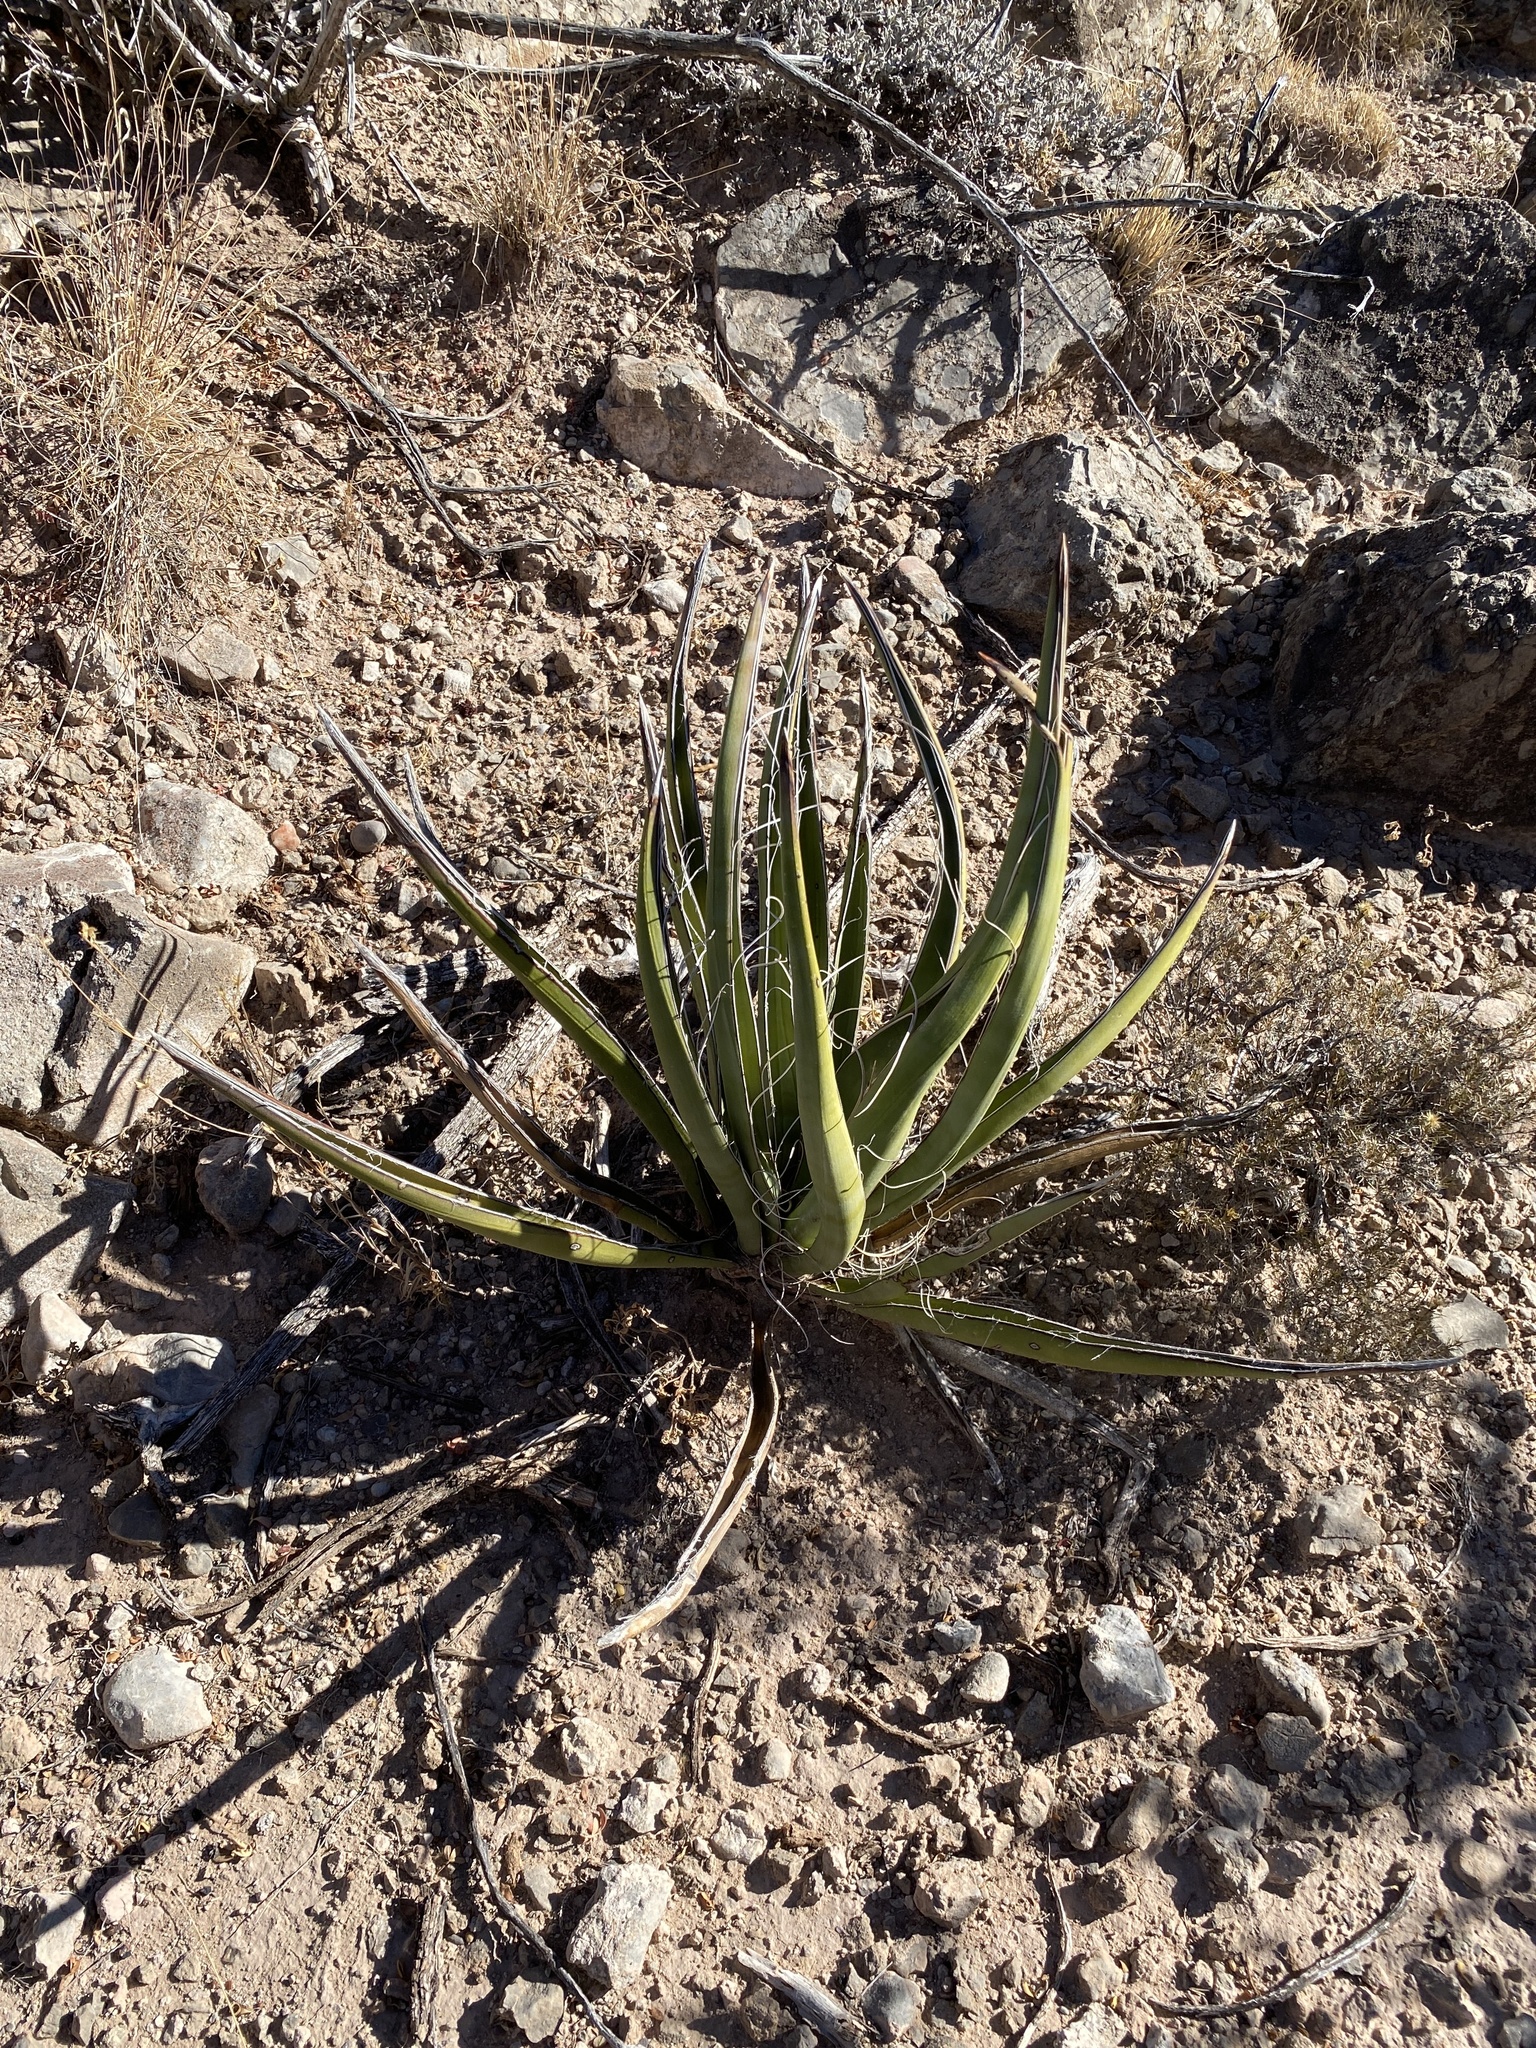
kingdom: Plantae
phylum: Tracheophyta
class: Liliopsida
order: Asparagales
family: Asparagaceae
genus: Yucca
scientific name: Yucca baccata
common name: Banana yucca
